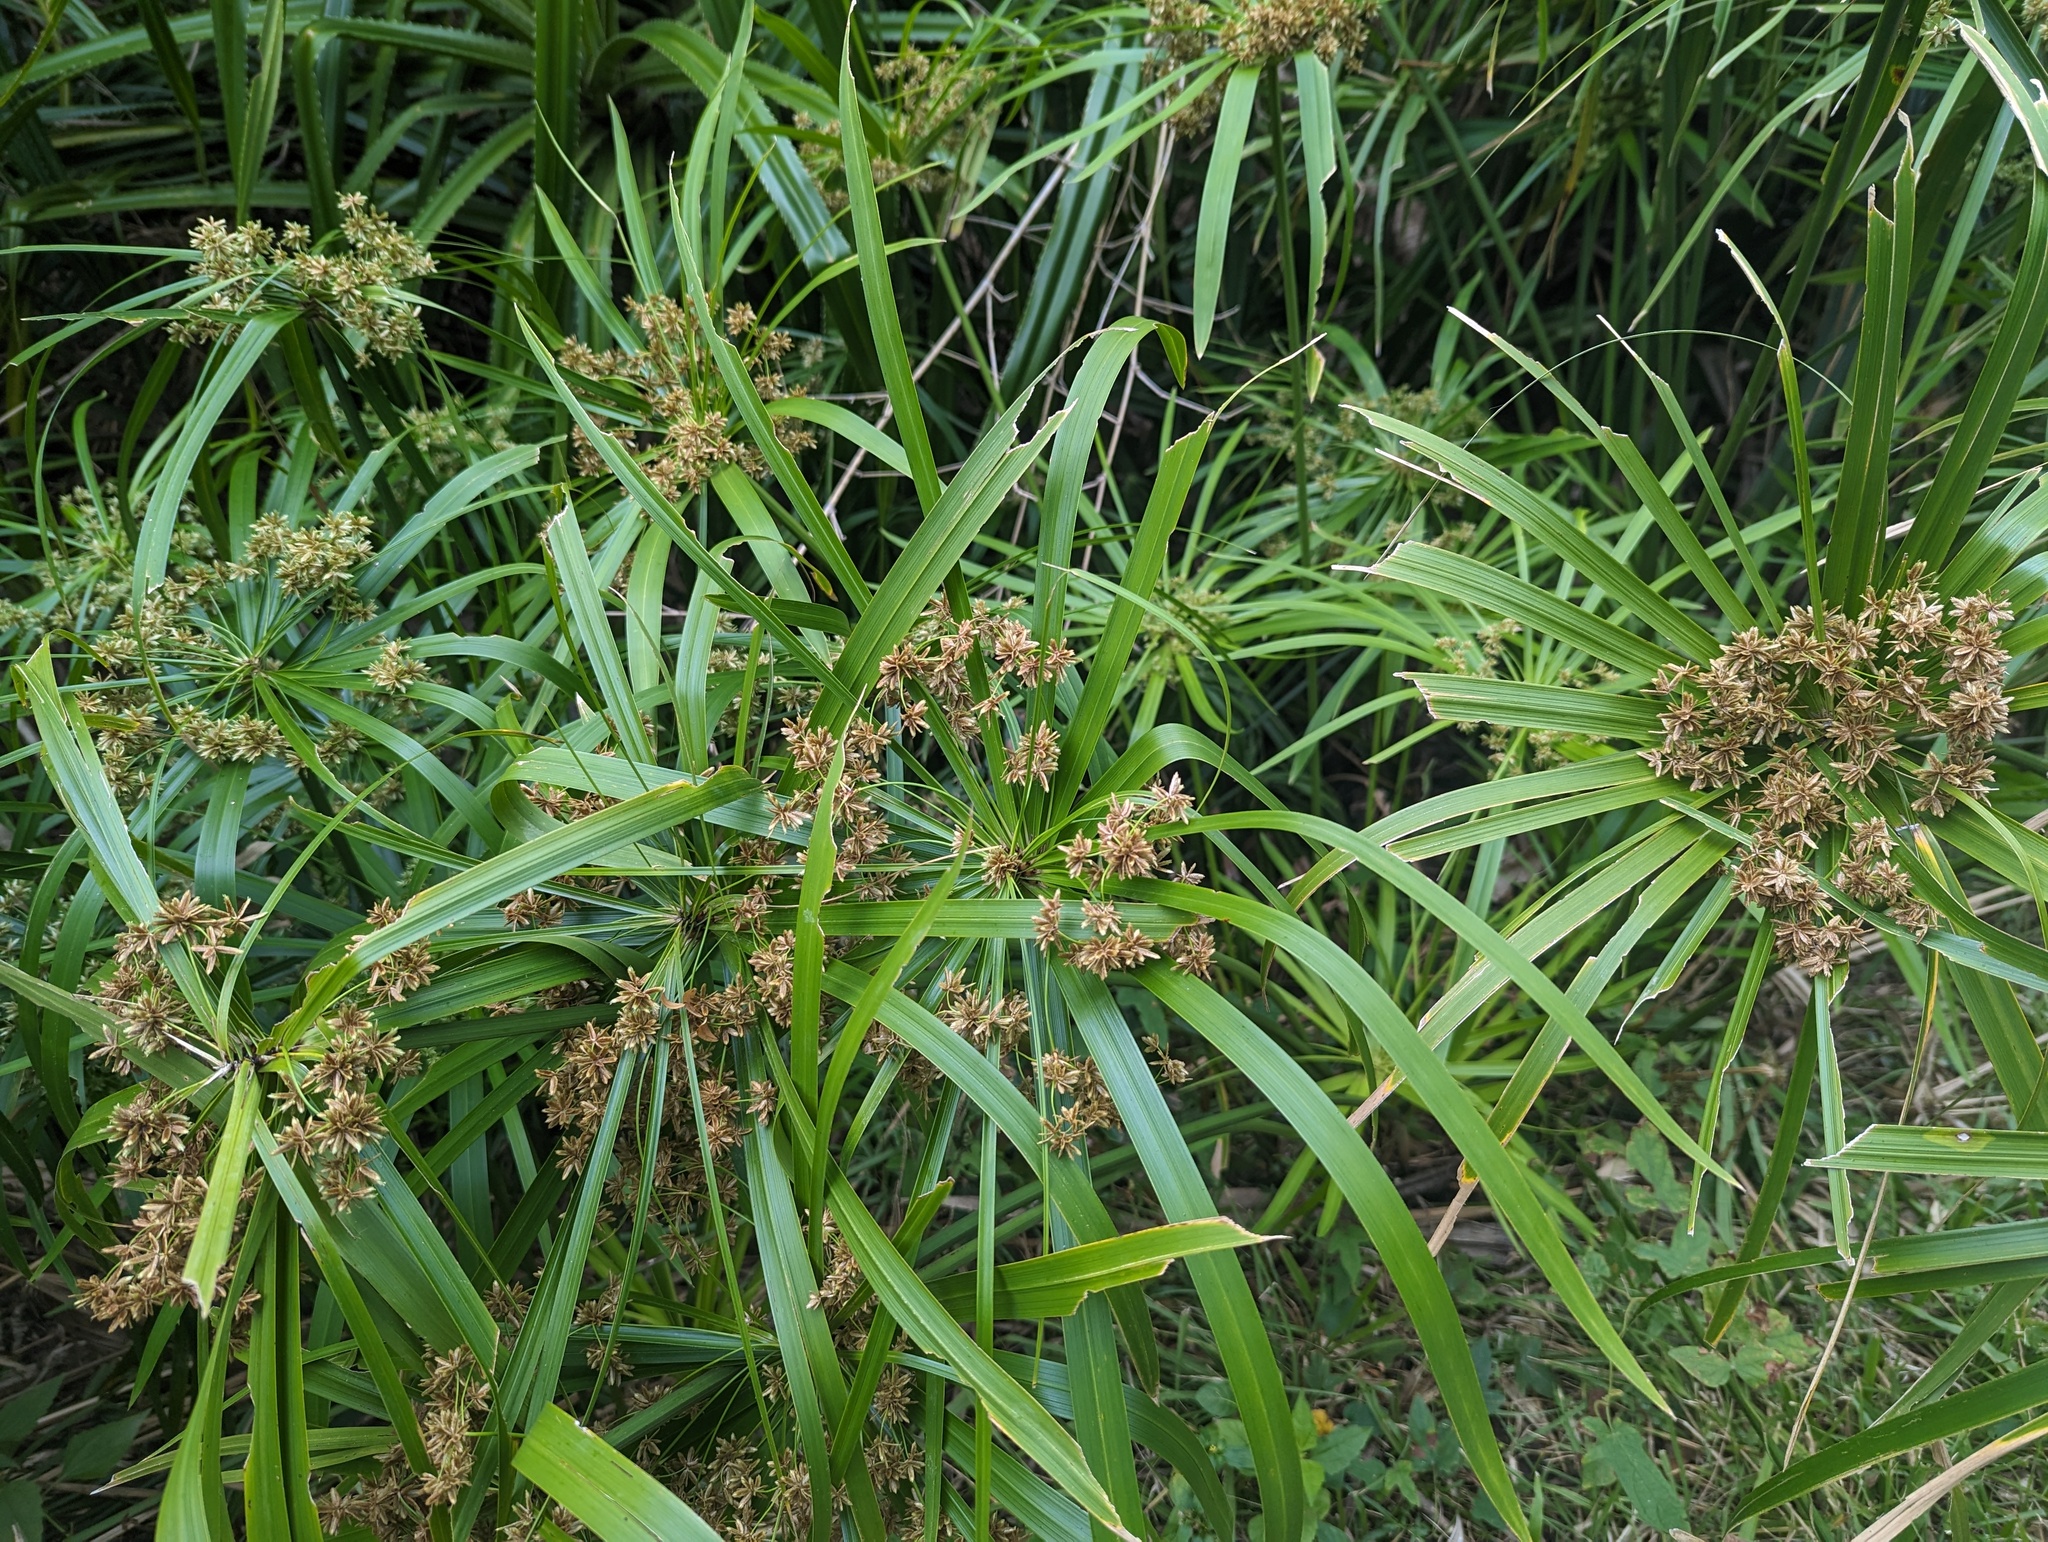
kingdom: Plantae
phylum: Tracheophyta
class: Liliopsida
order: Poales
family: Cyperaceae
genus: Cyperus
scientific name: Cyperus alternifolius
